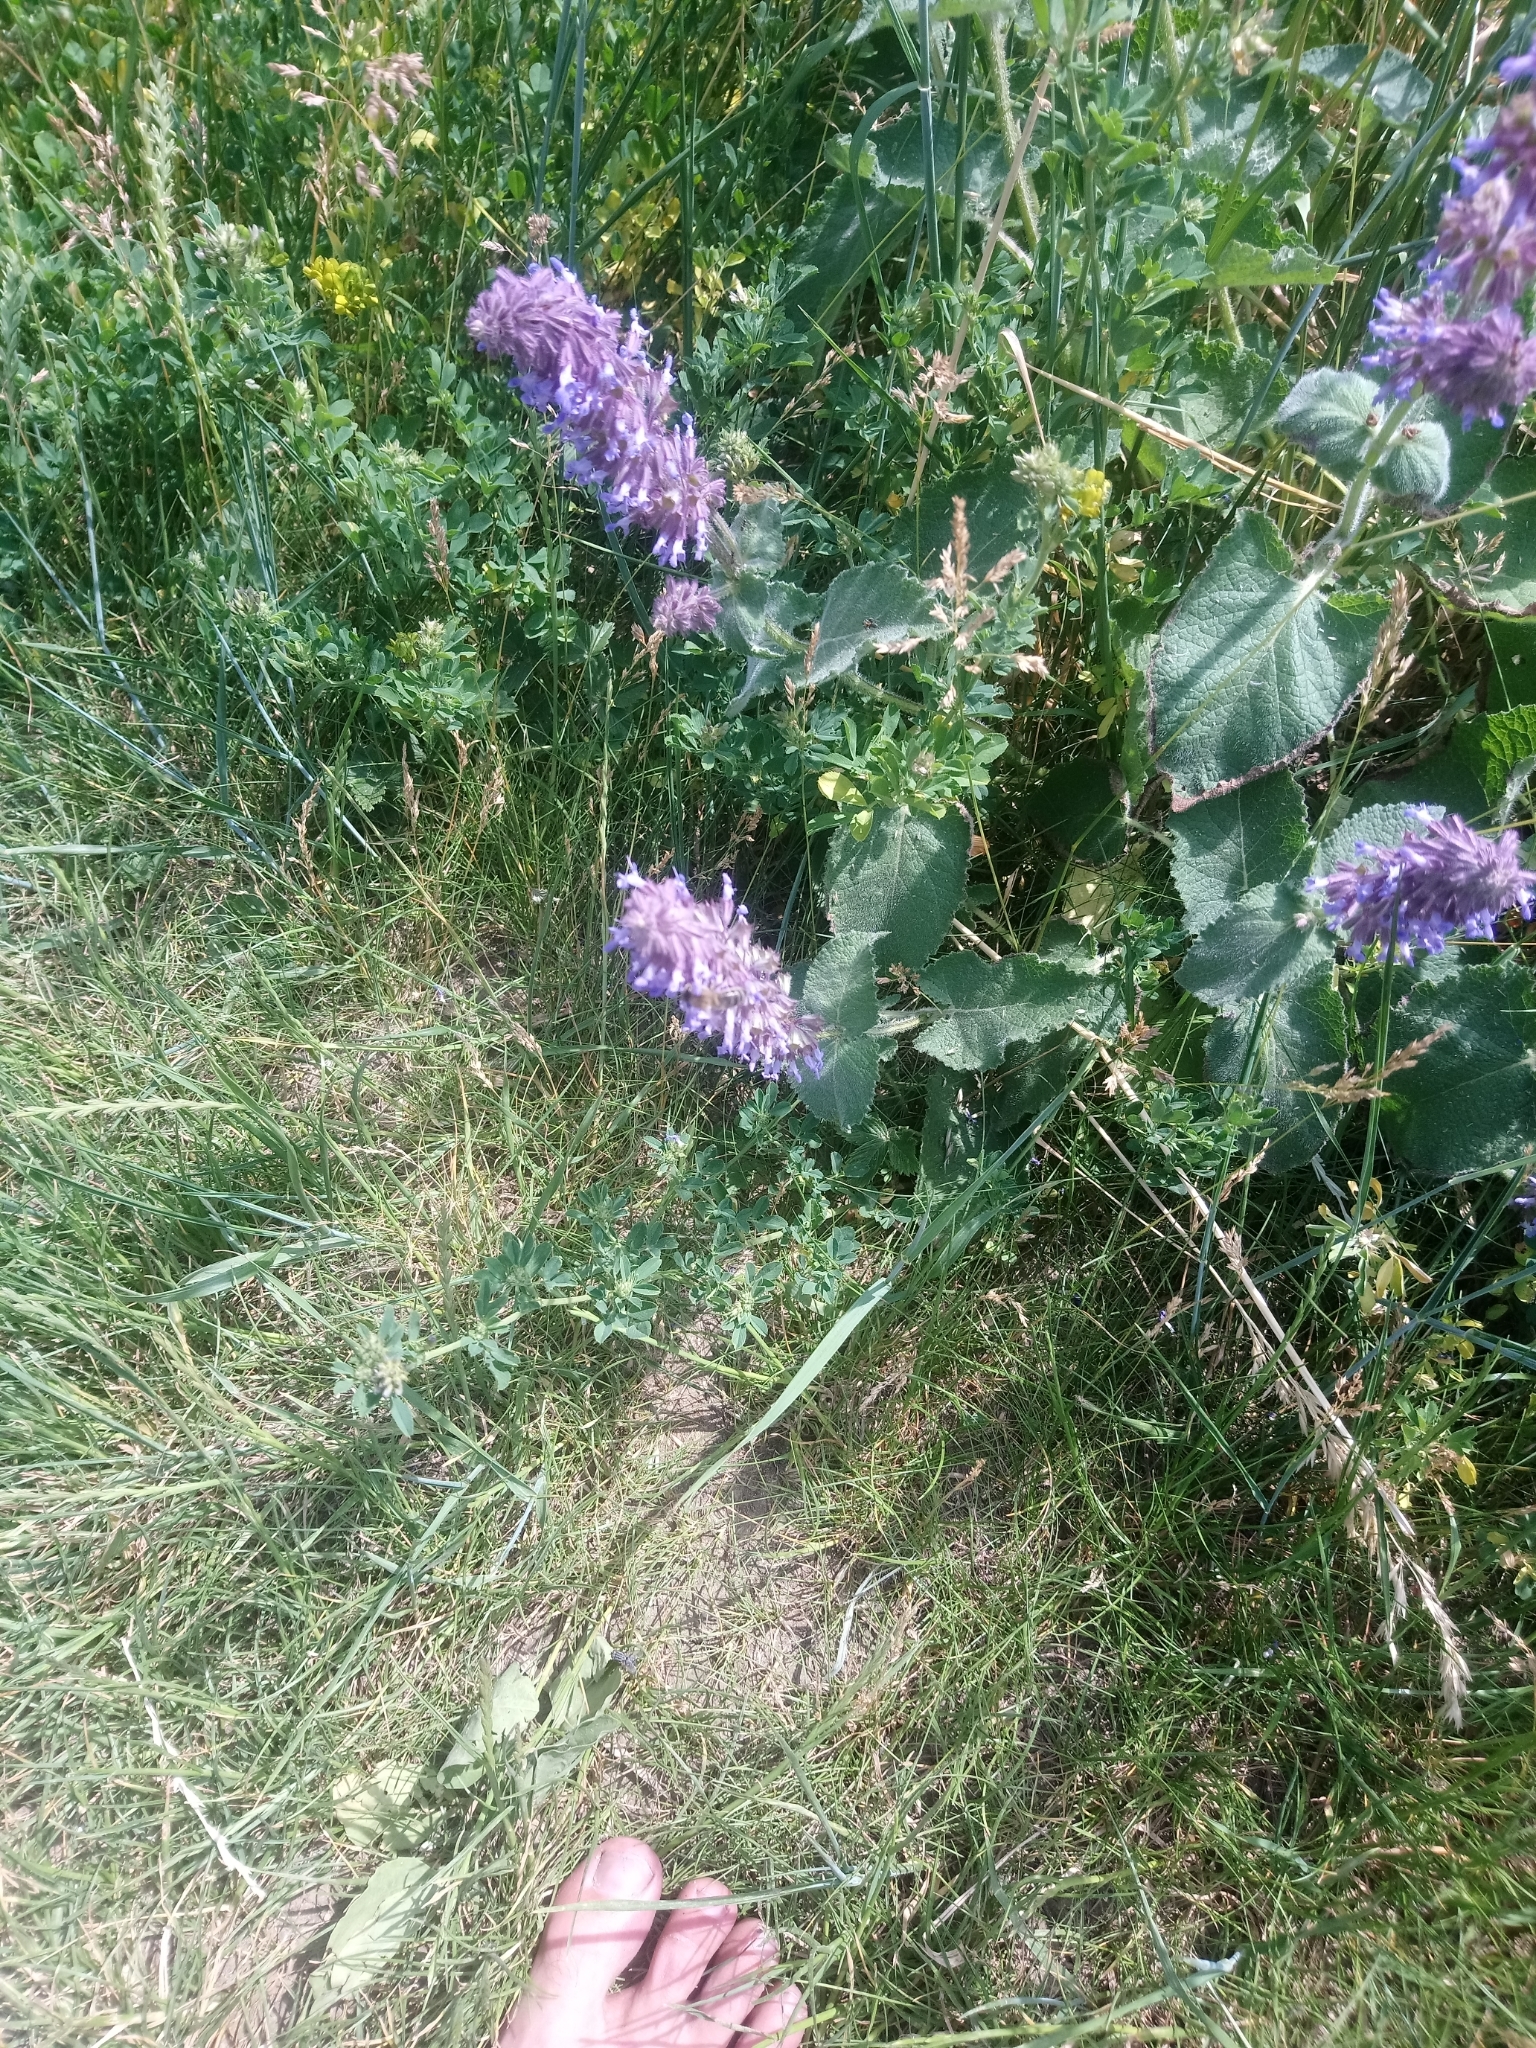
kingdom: Plantae
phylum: Tracheophyta
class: Magnoliopsida
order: Lamiales
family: Lamiaceae
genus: Salvia
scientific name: Salvia verticillata
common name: Whorled clary
